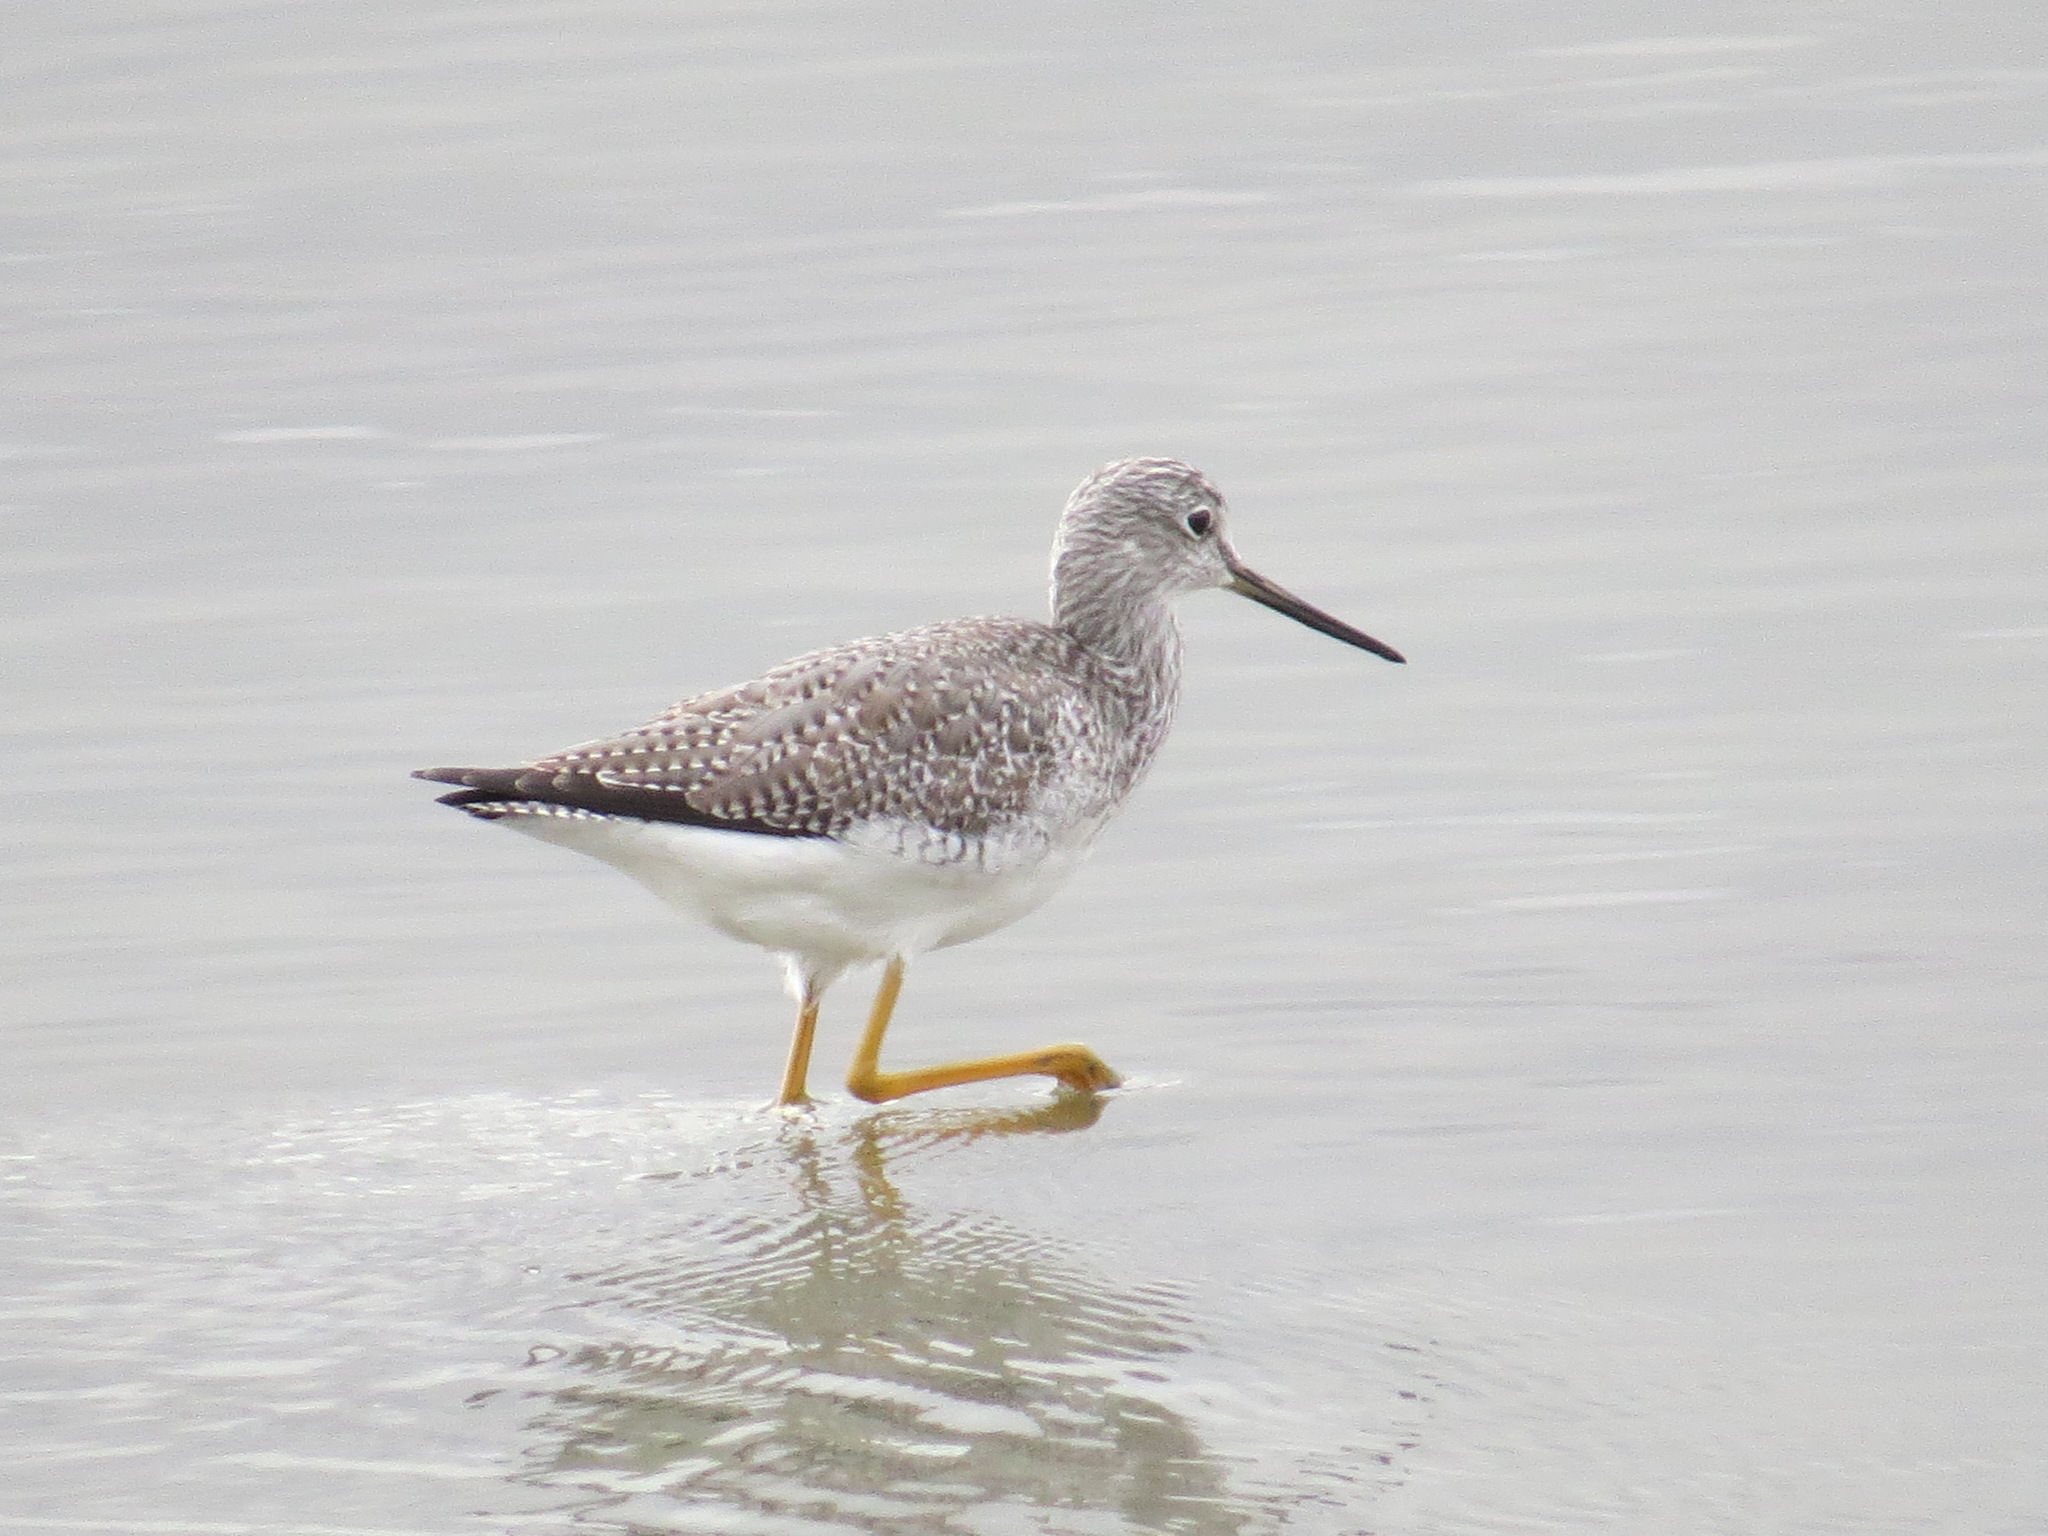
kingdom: Animalia
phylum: Chordata
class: Aves
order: Charadriiformes
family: Scolopacidae
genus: Tringa
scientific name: Tringa melanoleuca
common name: Greater yellowlegs
